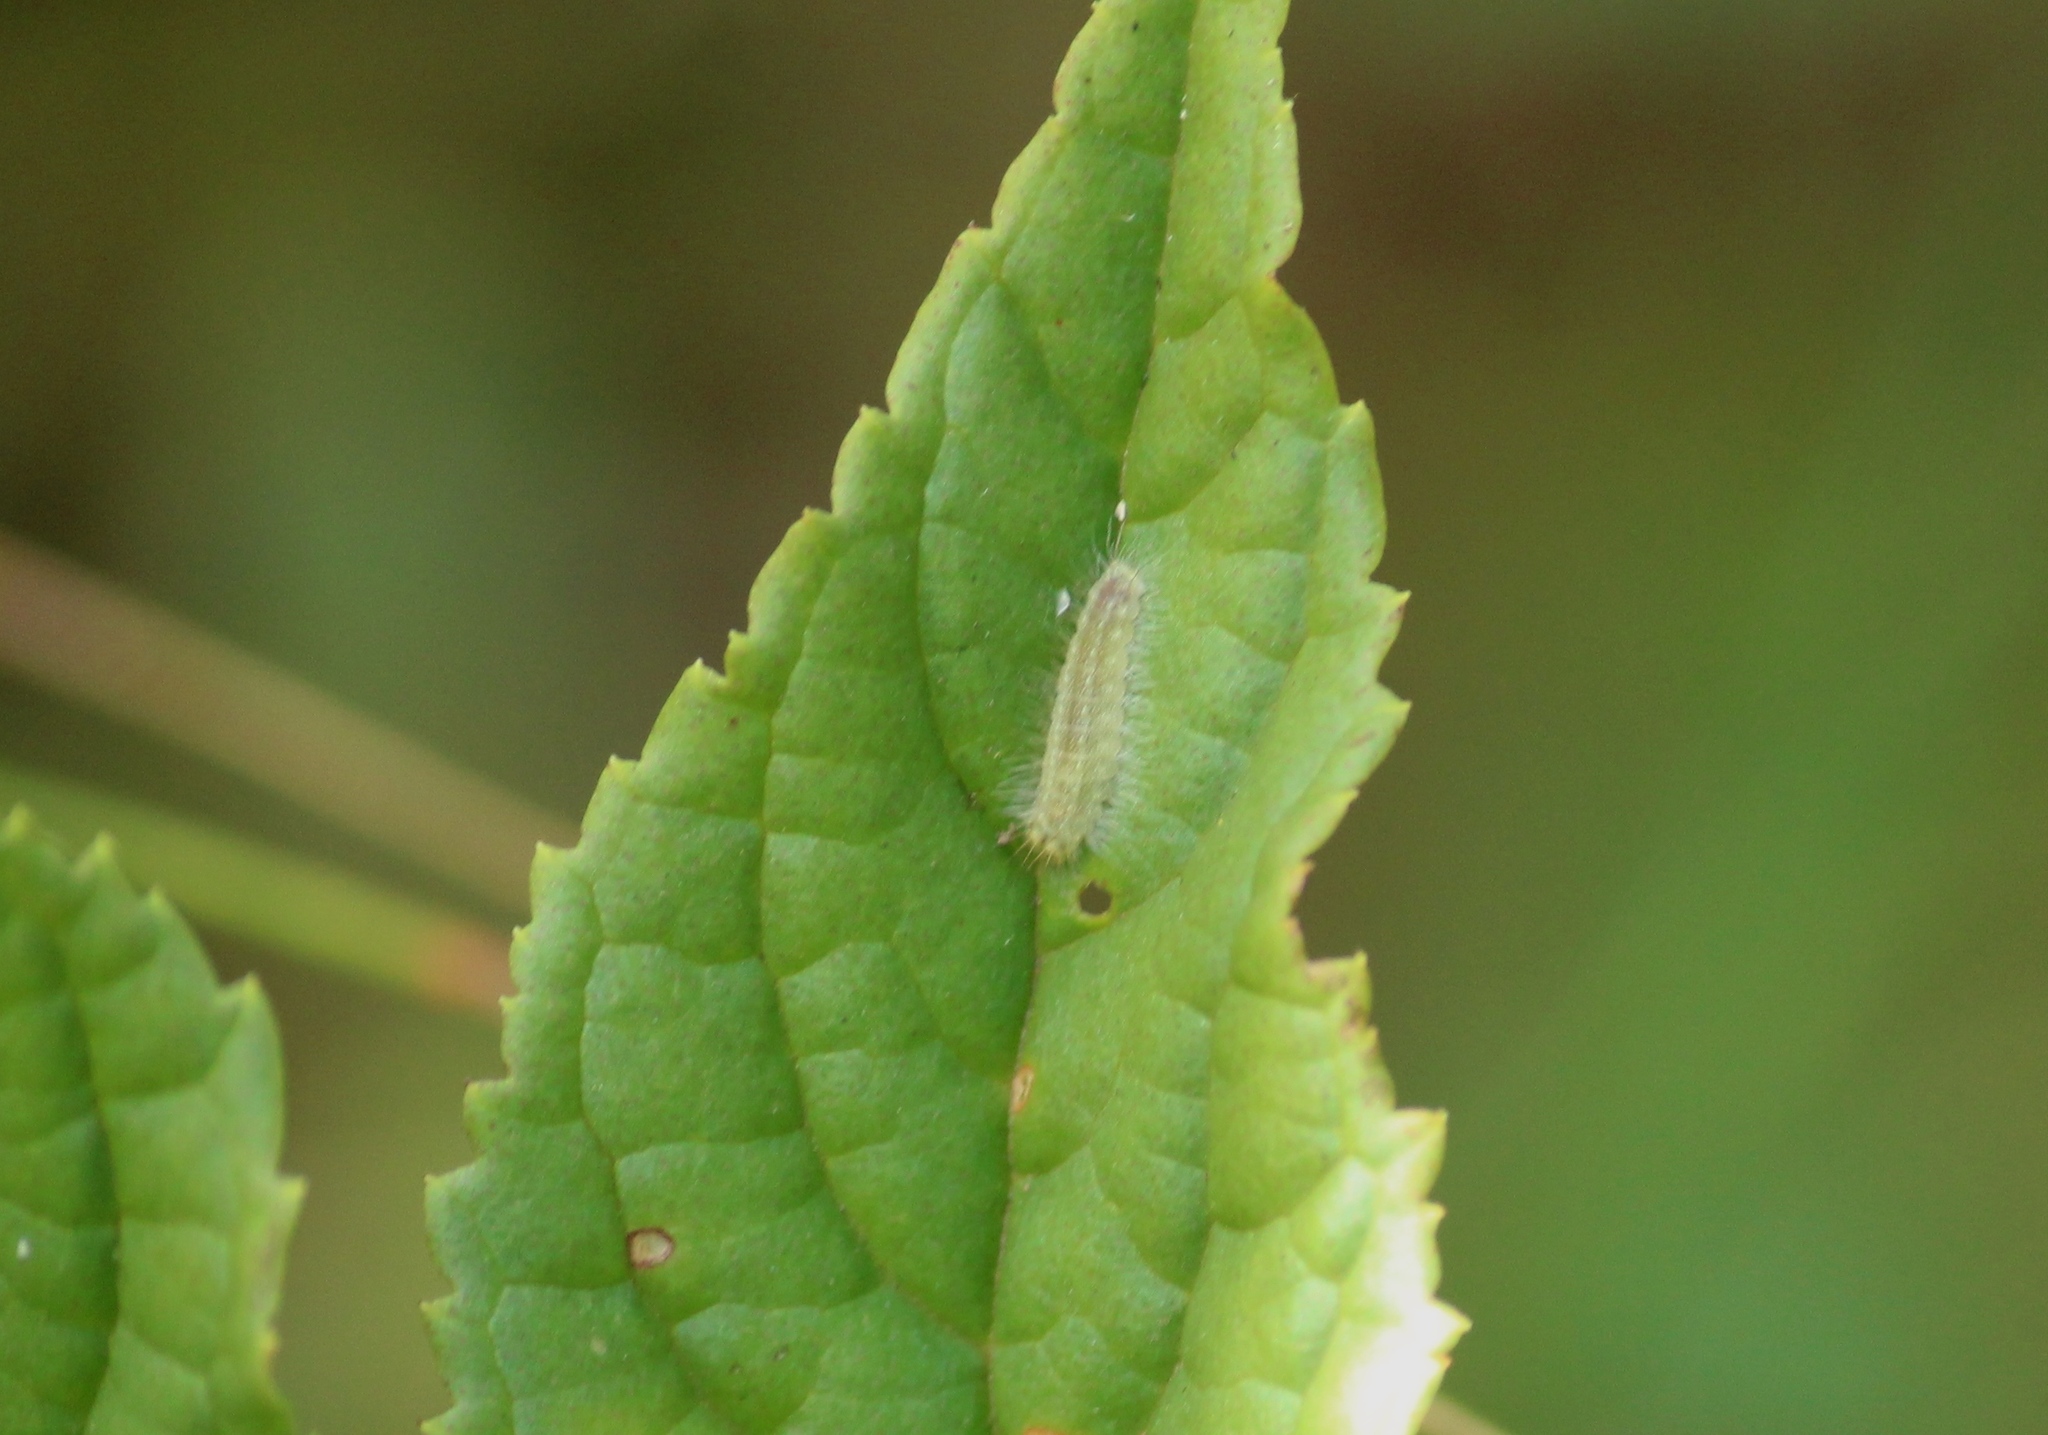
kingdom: Animalia
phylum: Arthropoda
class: Insecta
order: Lepidoptera
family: Lycaenidae
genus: Abisara
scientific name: Abisara bifasciata
